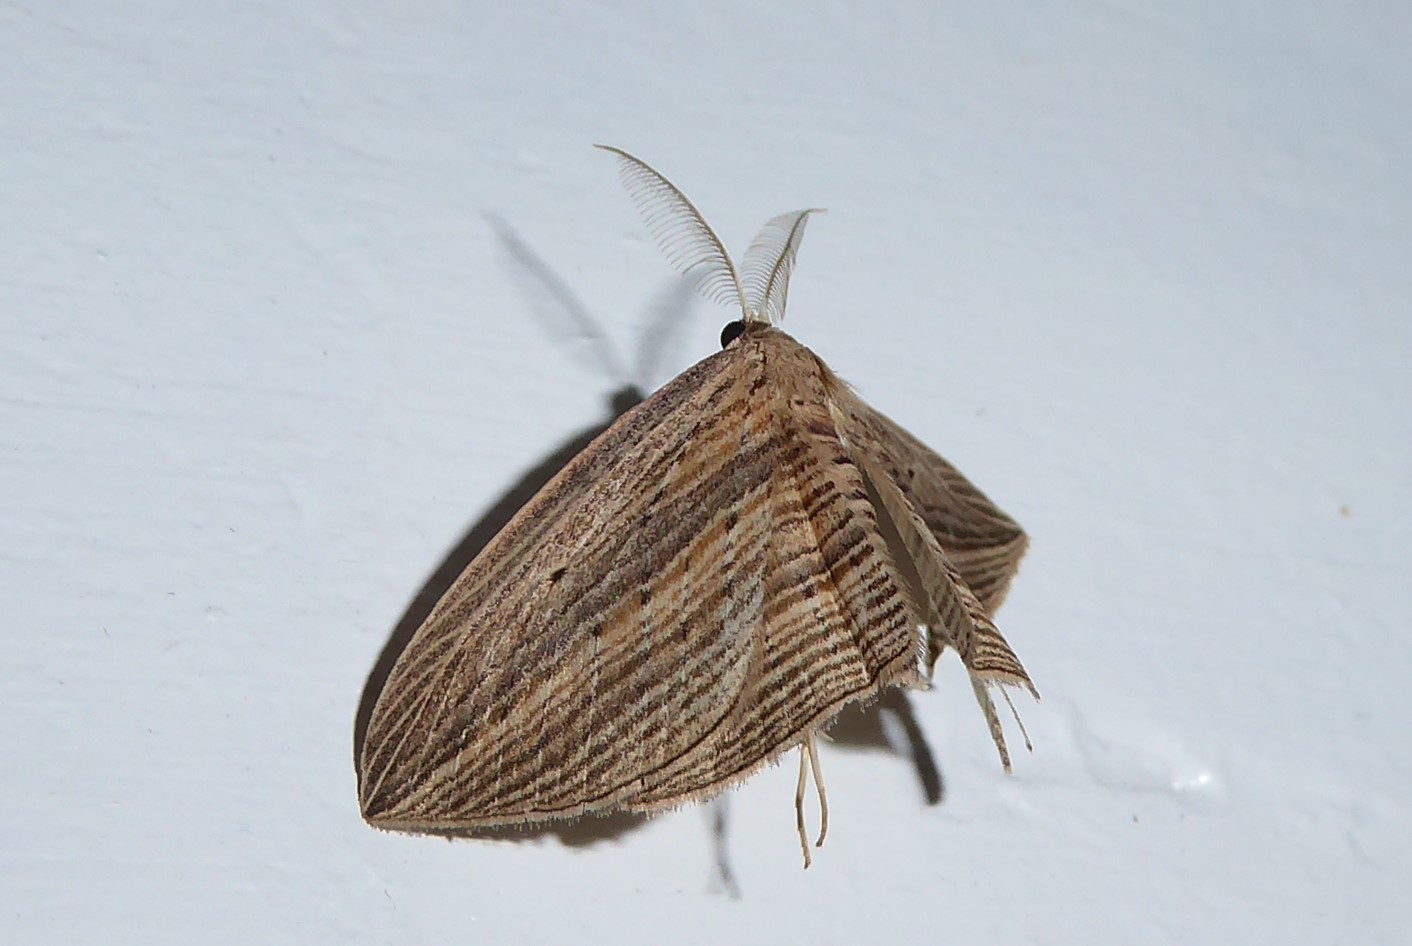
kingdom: Animalia
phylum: Arthropoda
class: Insecta
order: Lepidoptera
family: Geometridae
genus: Epiphryne
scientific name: Epiphryne verriculata
